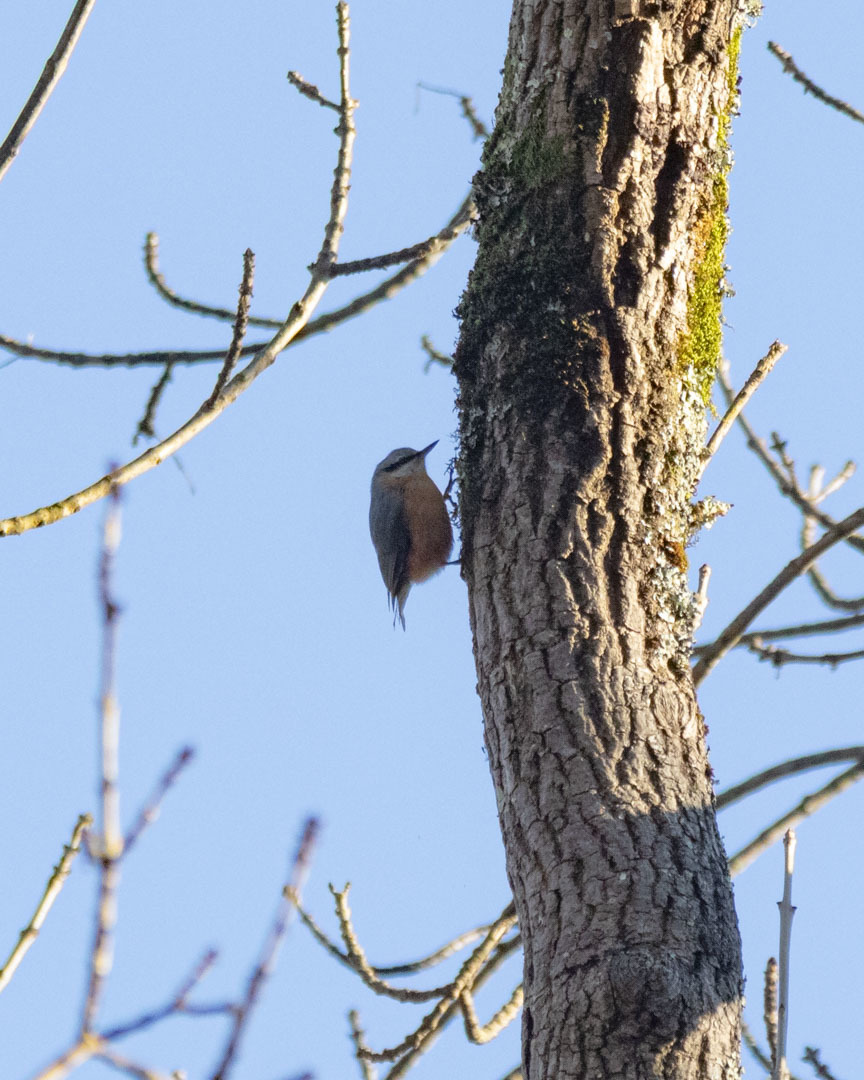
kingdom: Animalia
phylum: Chordata
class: Aves
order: Passeriformes
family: Sittidae
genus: Sitta
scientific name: Sitta europaea
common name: Eurasian nuthatch
